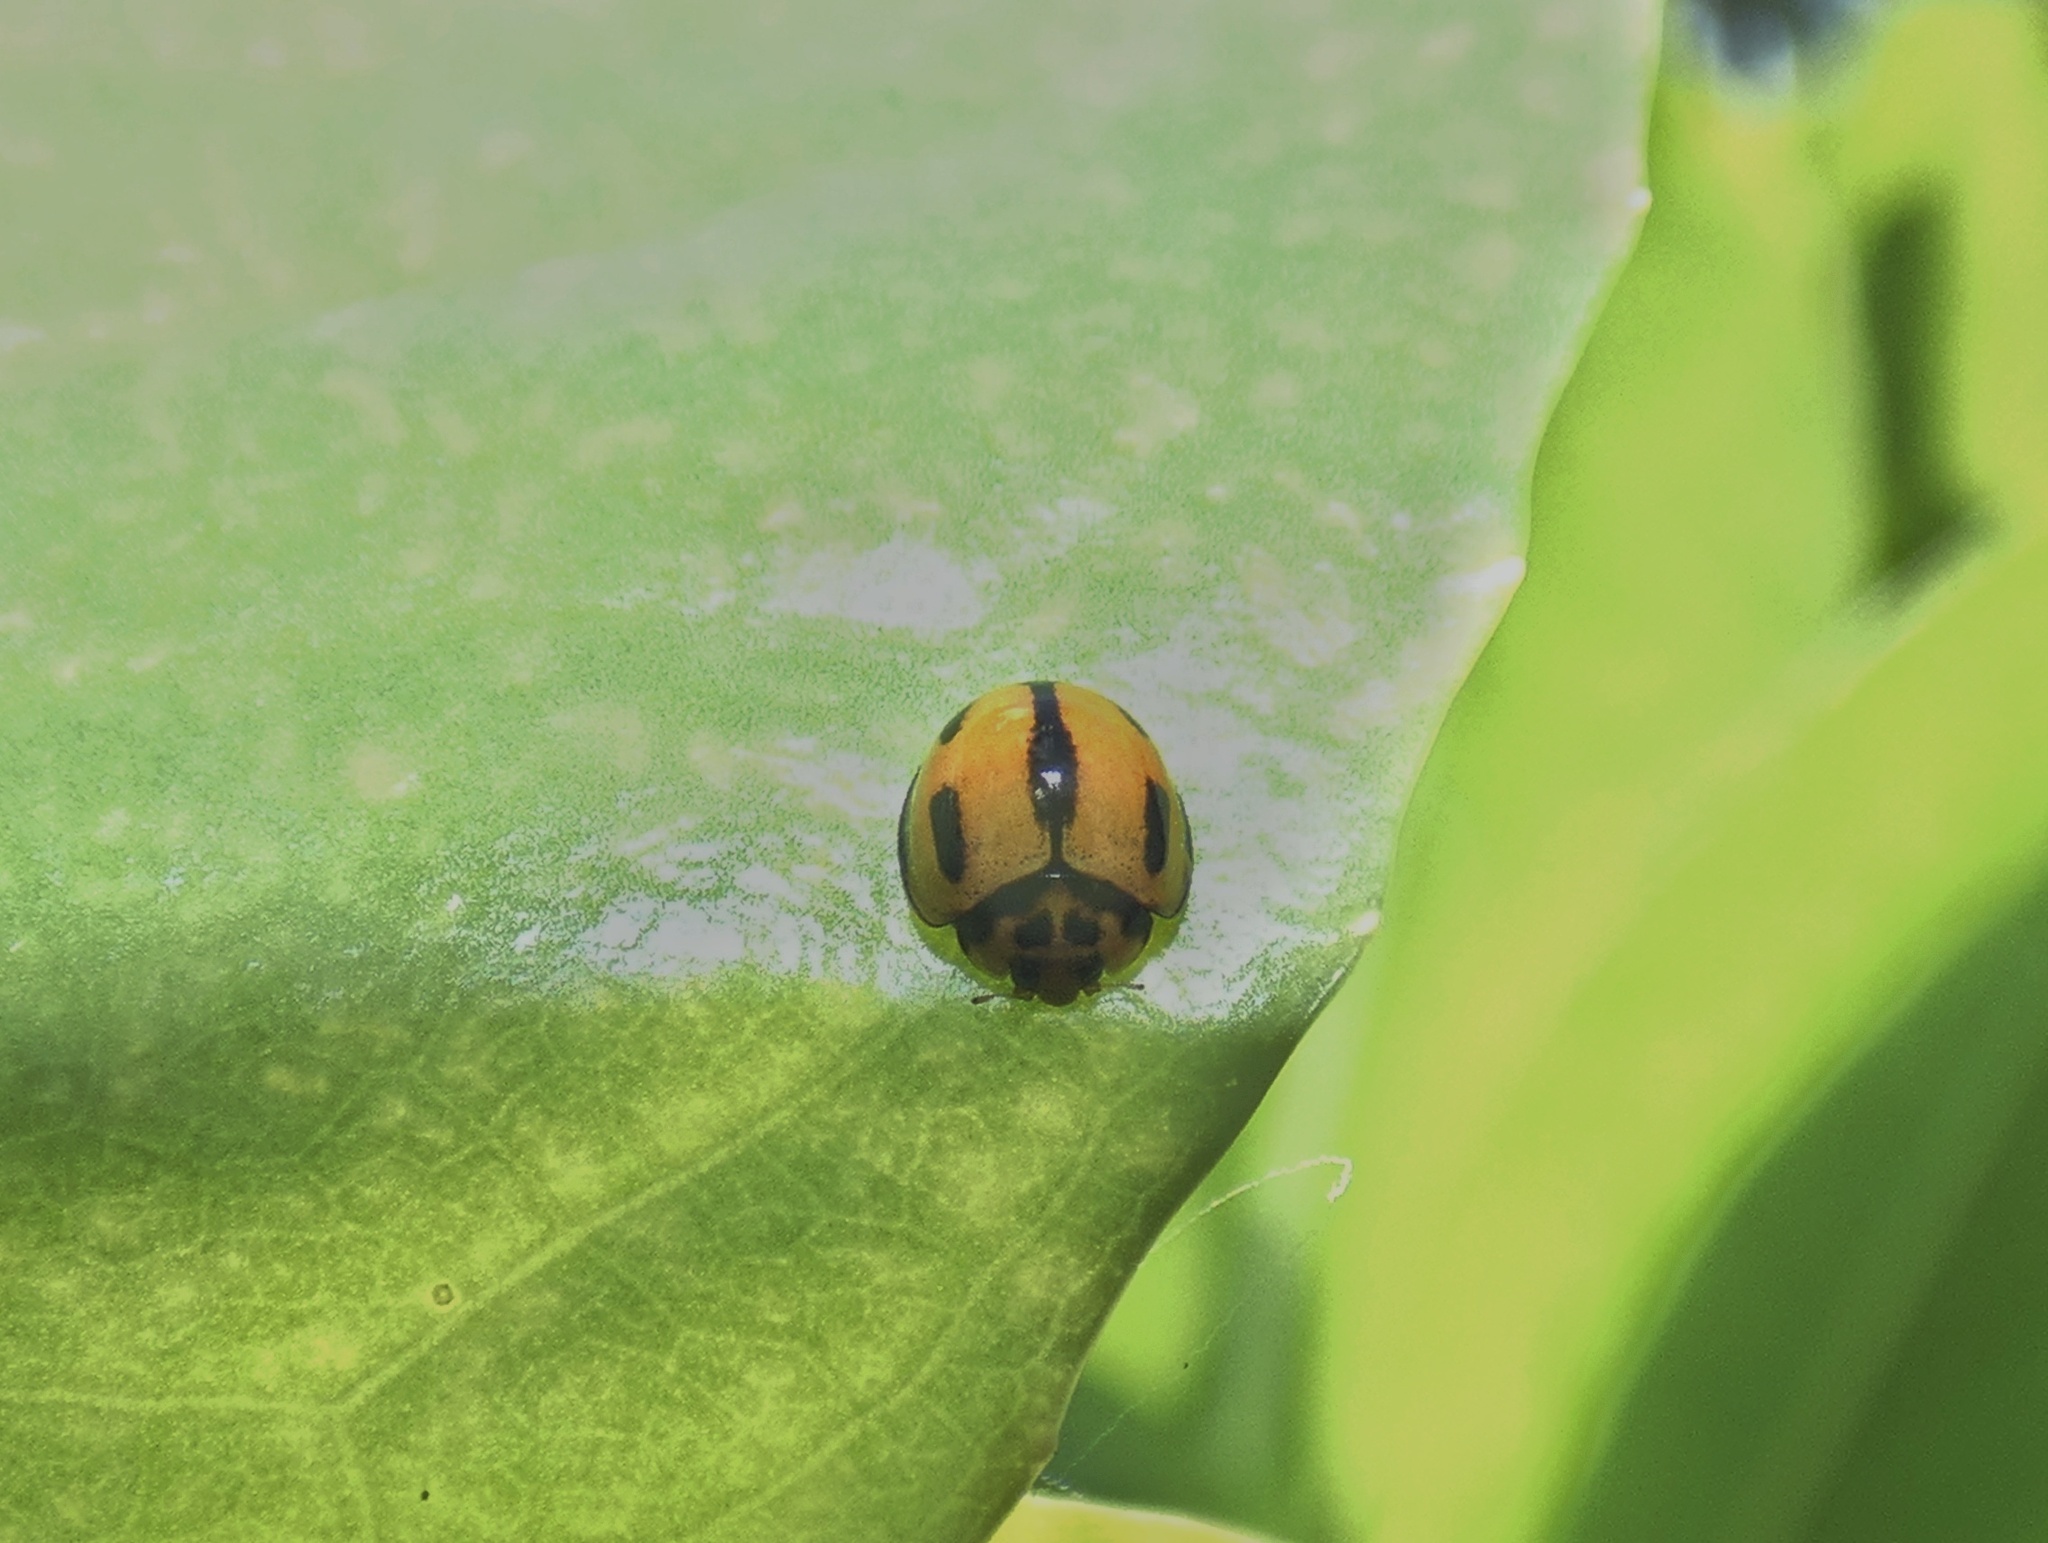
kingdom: Animalia
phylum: Arthropoda
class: Insecta
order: Coleoptera
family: Coccinellidae
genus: Coelophora
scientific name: Coelophora inaequalis
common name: Common australian lady beetle
